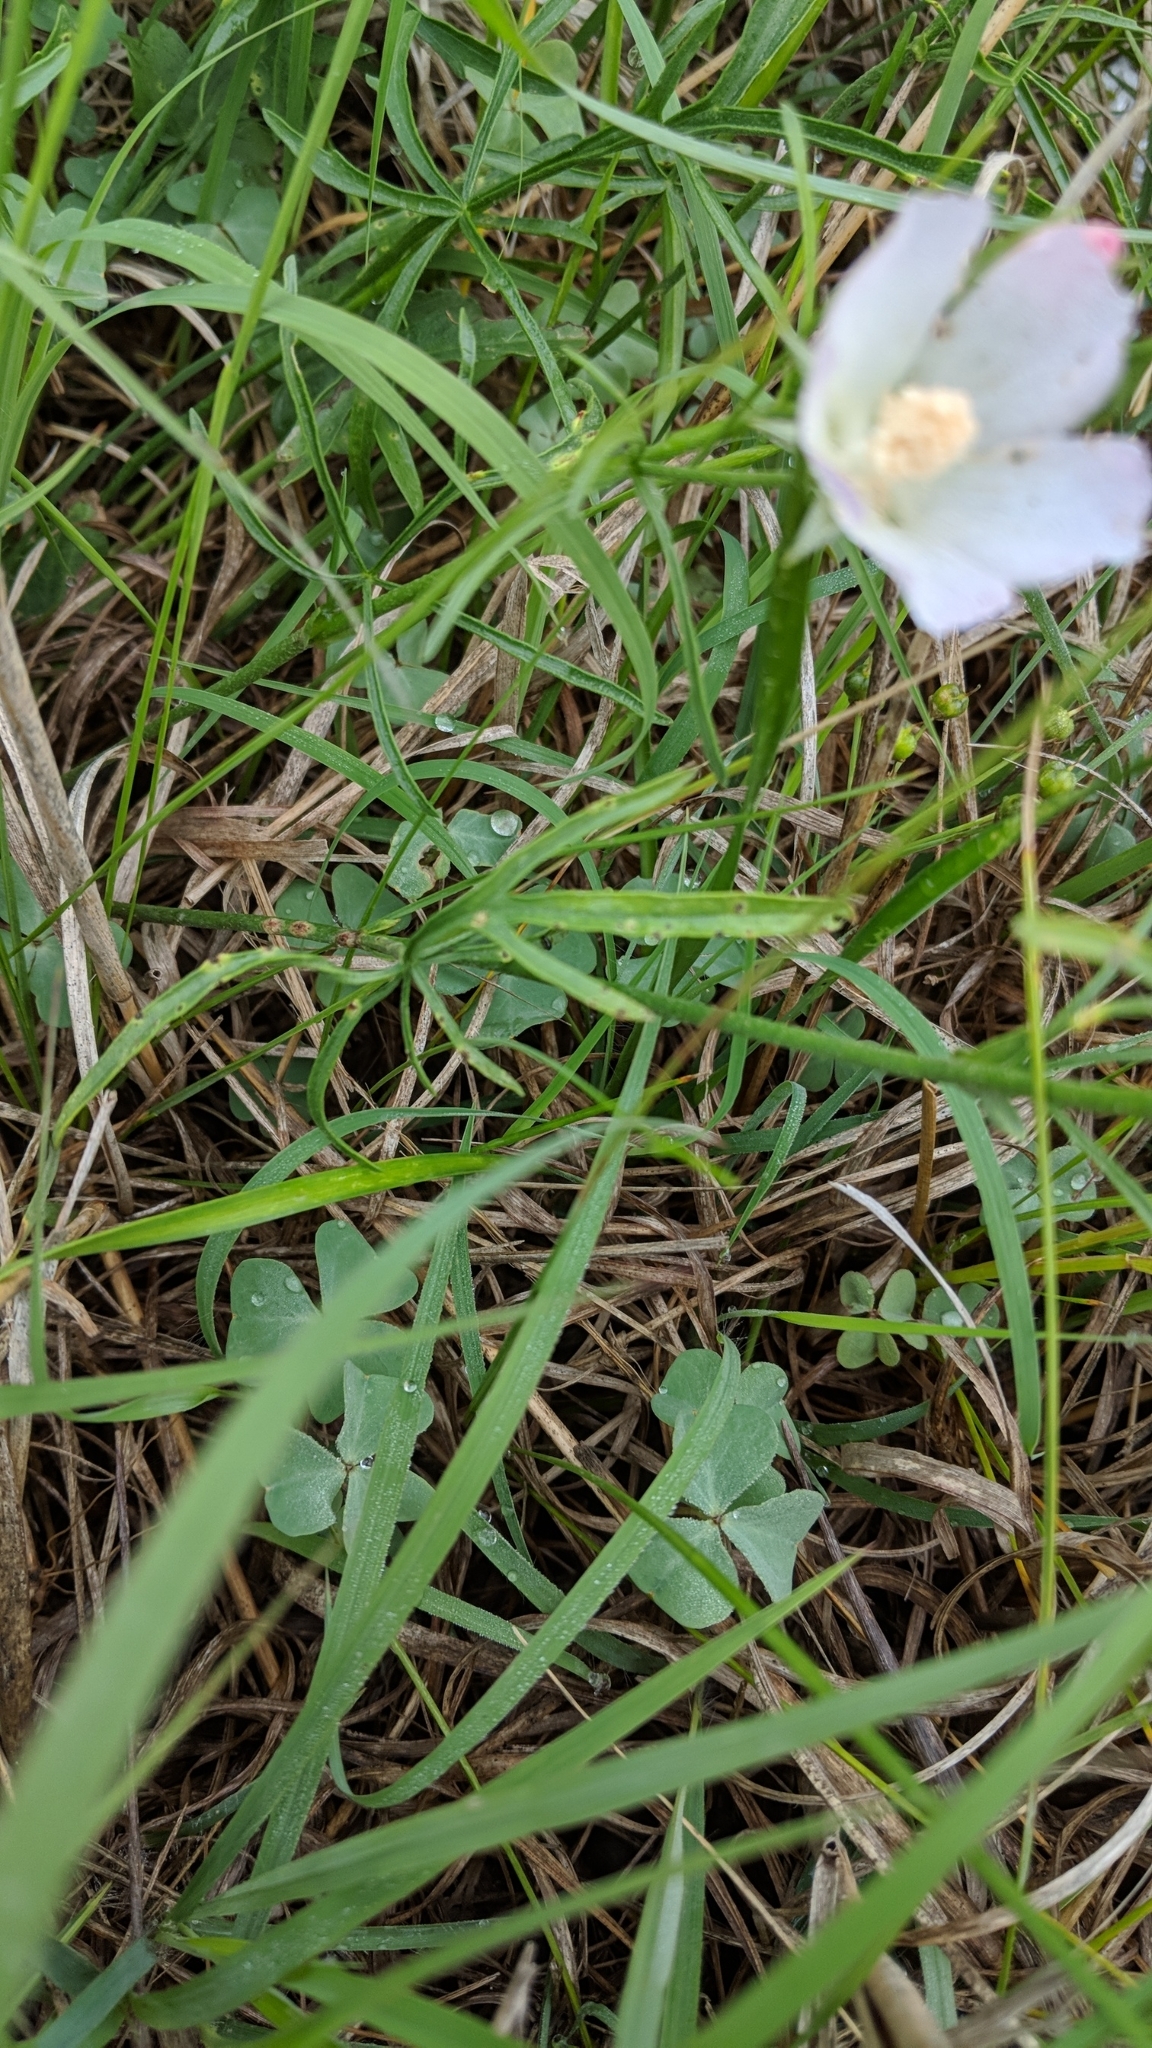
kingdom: Plantae
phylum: Tracheophyta
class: Magnoliopsida
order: Malvales
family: Malvaceae
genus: Callirhoe
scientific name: Callirhoe alcaeoides
